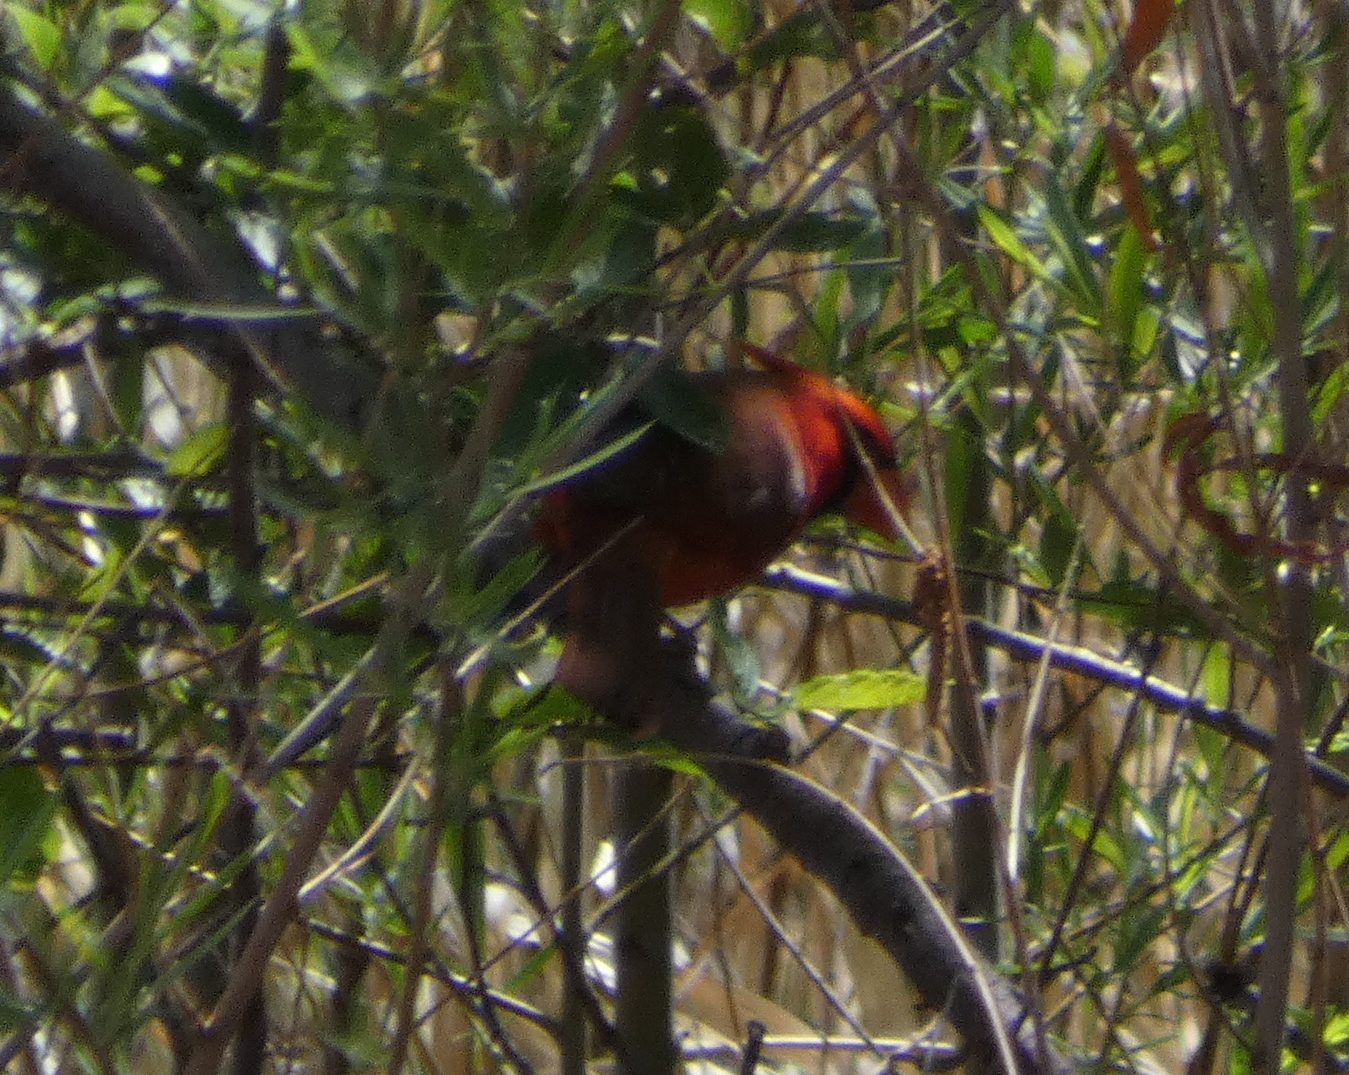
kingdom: Animalia
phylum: Chordata
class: Aves
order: Passeriformes
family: Cardinalidae
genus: Cardinalis
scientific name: Cardinalis cardinalis
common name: Northern cardinal
